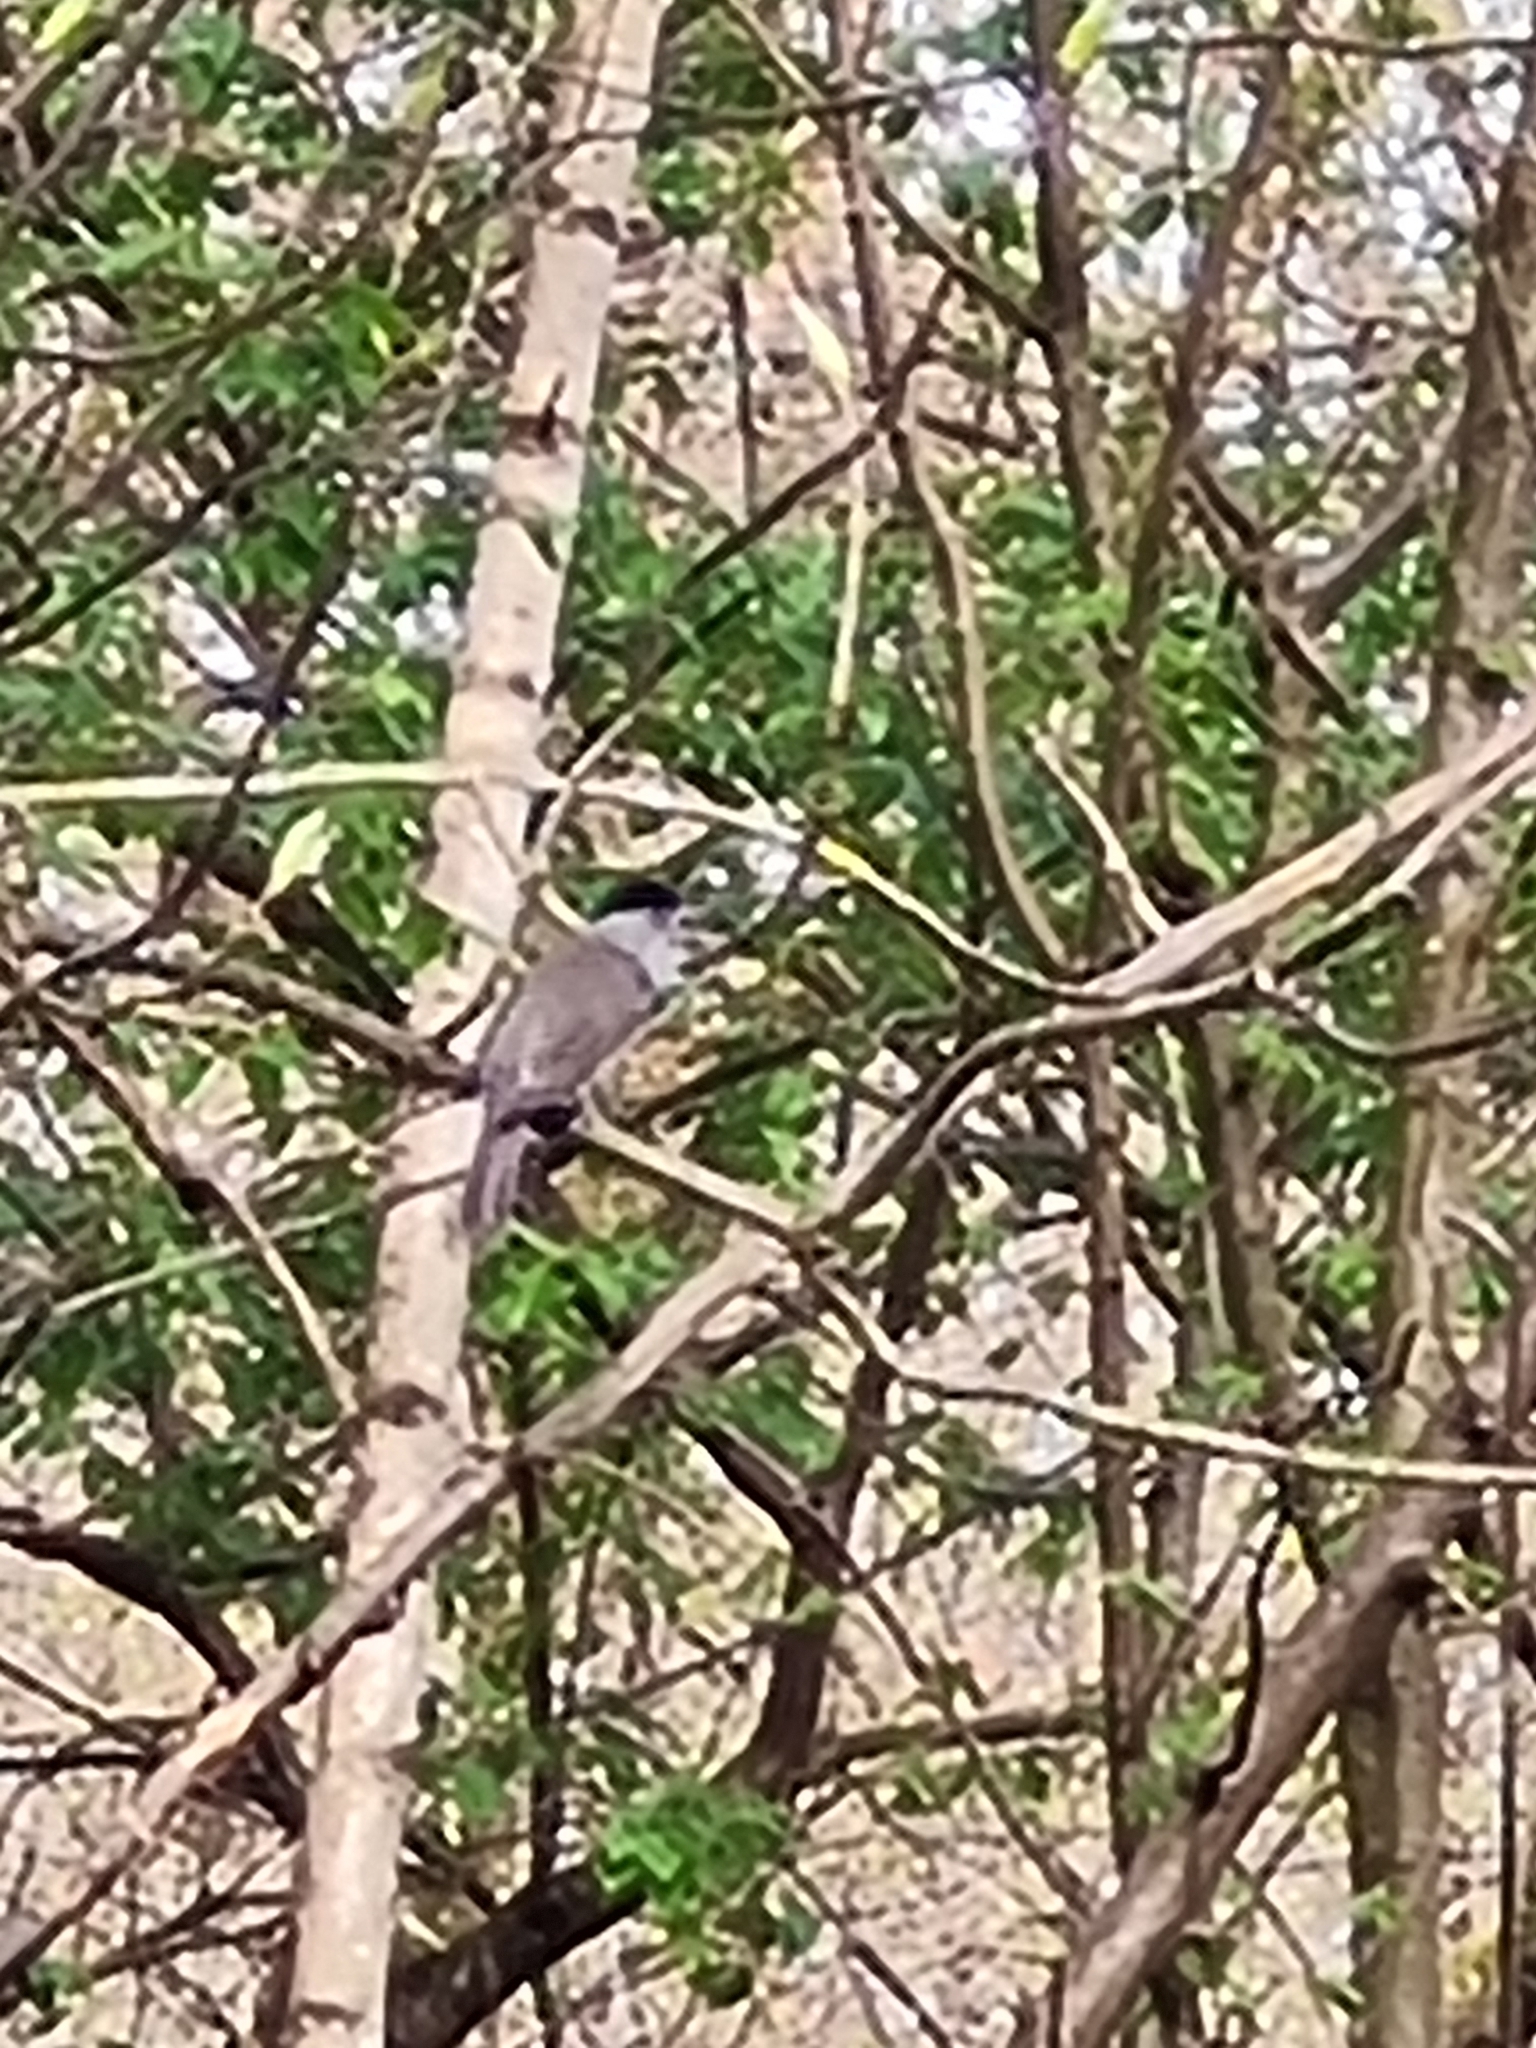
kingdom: Animalia
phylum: Chordata
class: Aves
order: Passeriformes
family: Sylviidae
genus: Sylvia
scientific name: Sylvia atricapilla
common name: Eurasian blackcap
